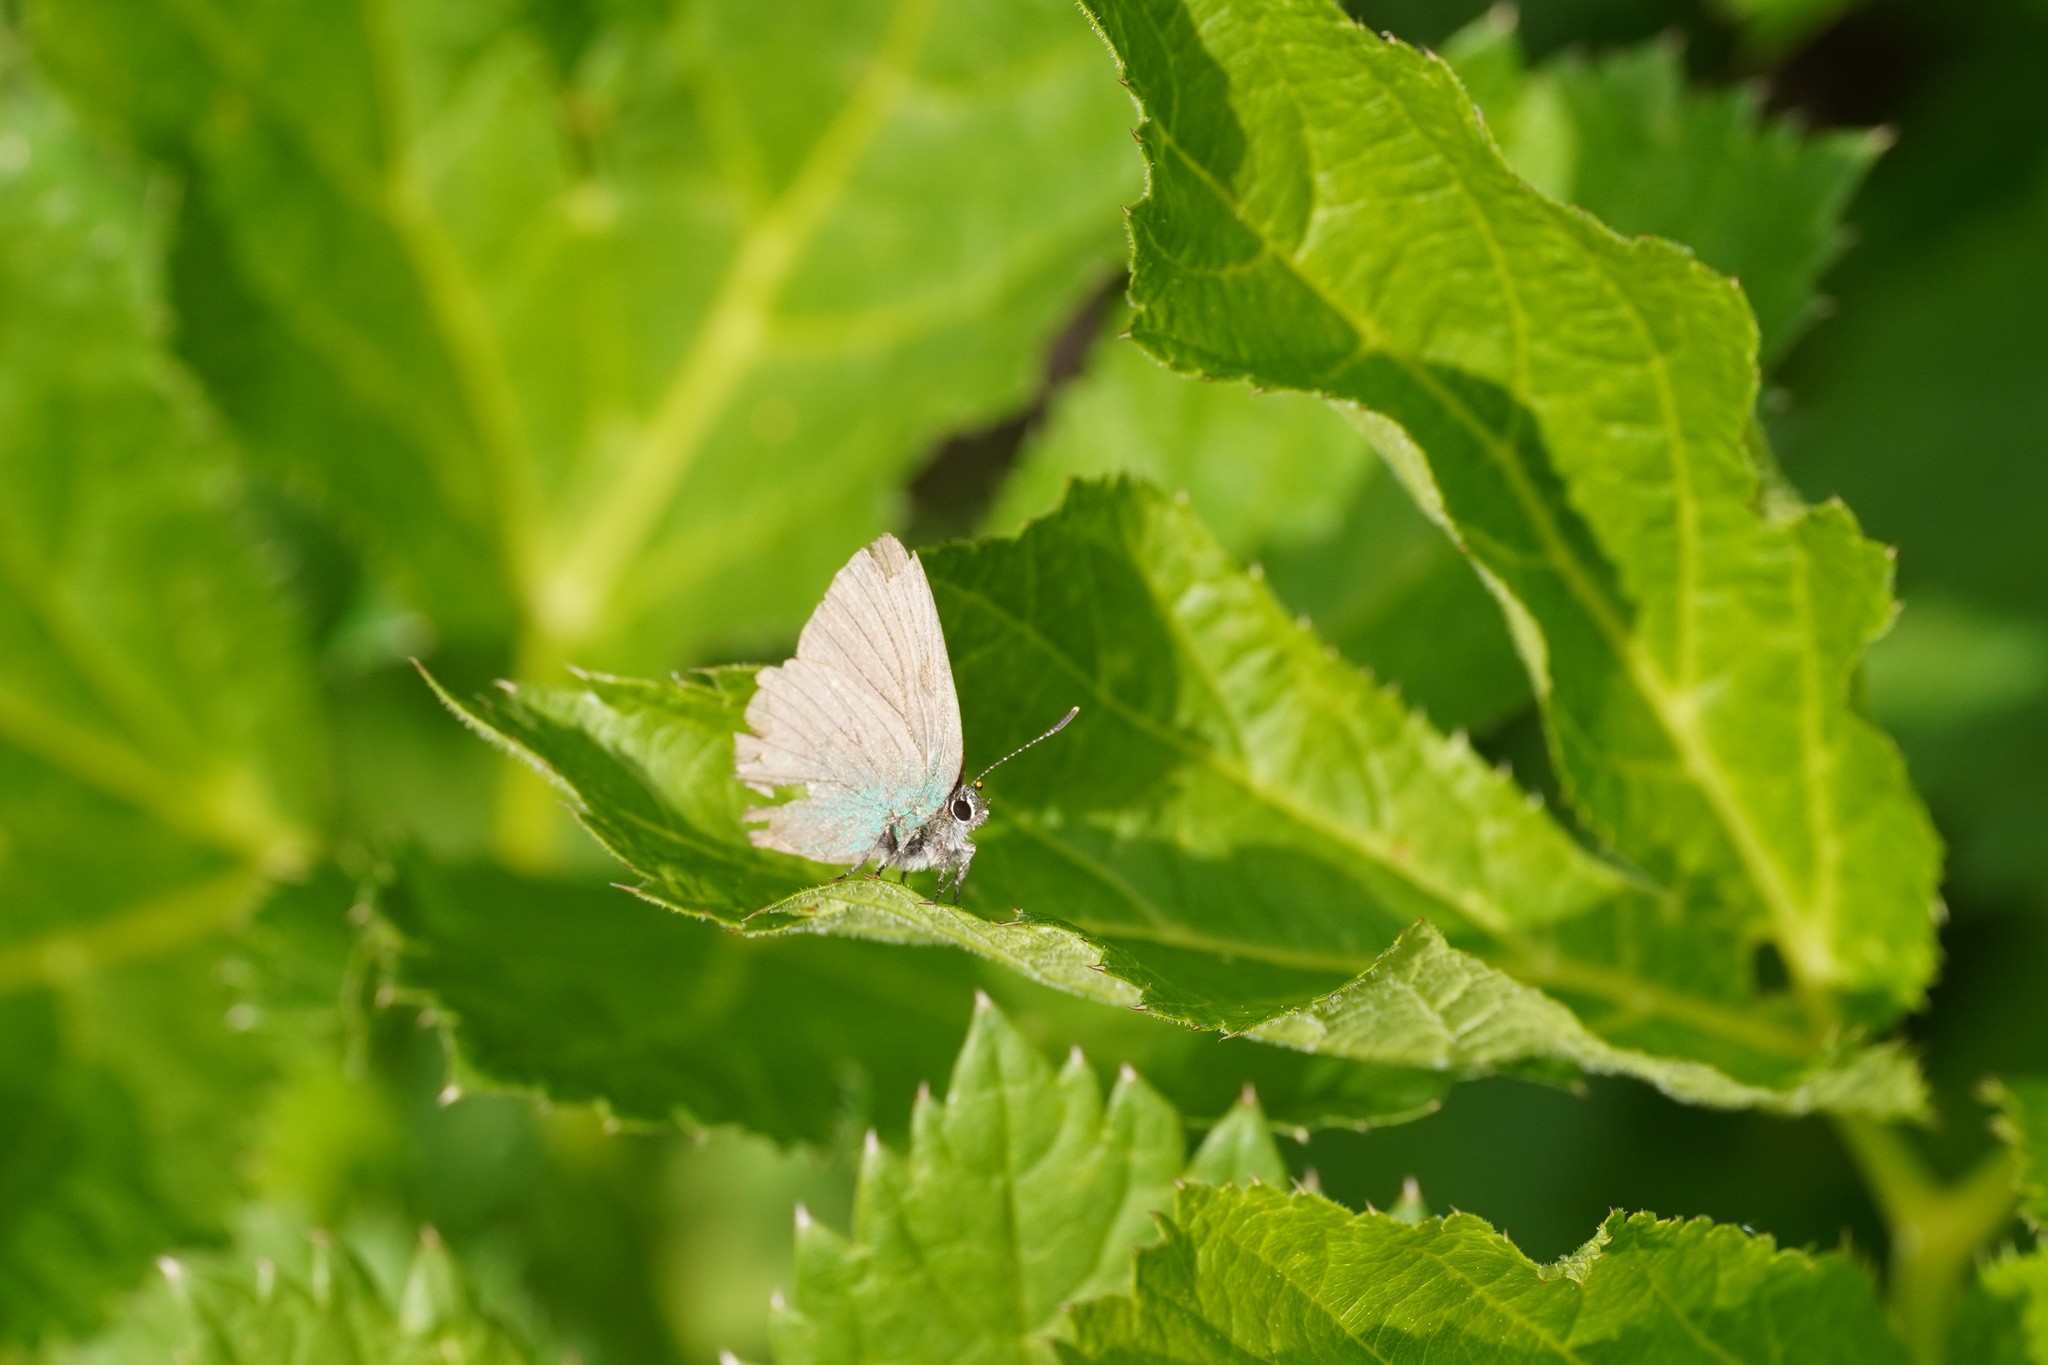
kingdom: Animalia
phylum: Arthropoda
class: Insecta
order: Lepidoptera
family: Lycaenidae
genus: Callophrys
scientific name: Callophrys rubi
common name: Green hairstreak
